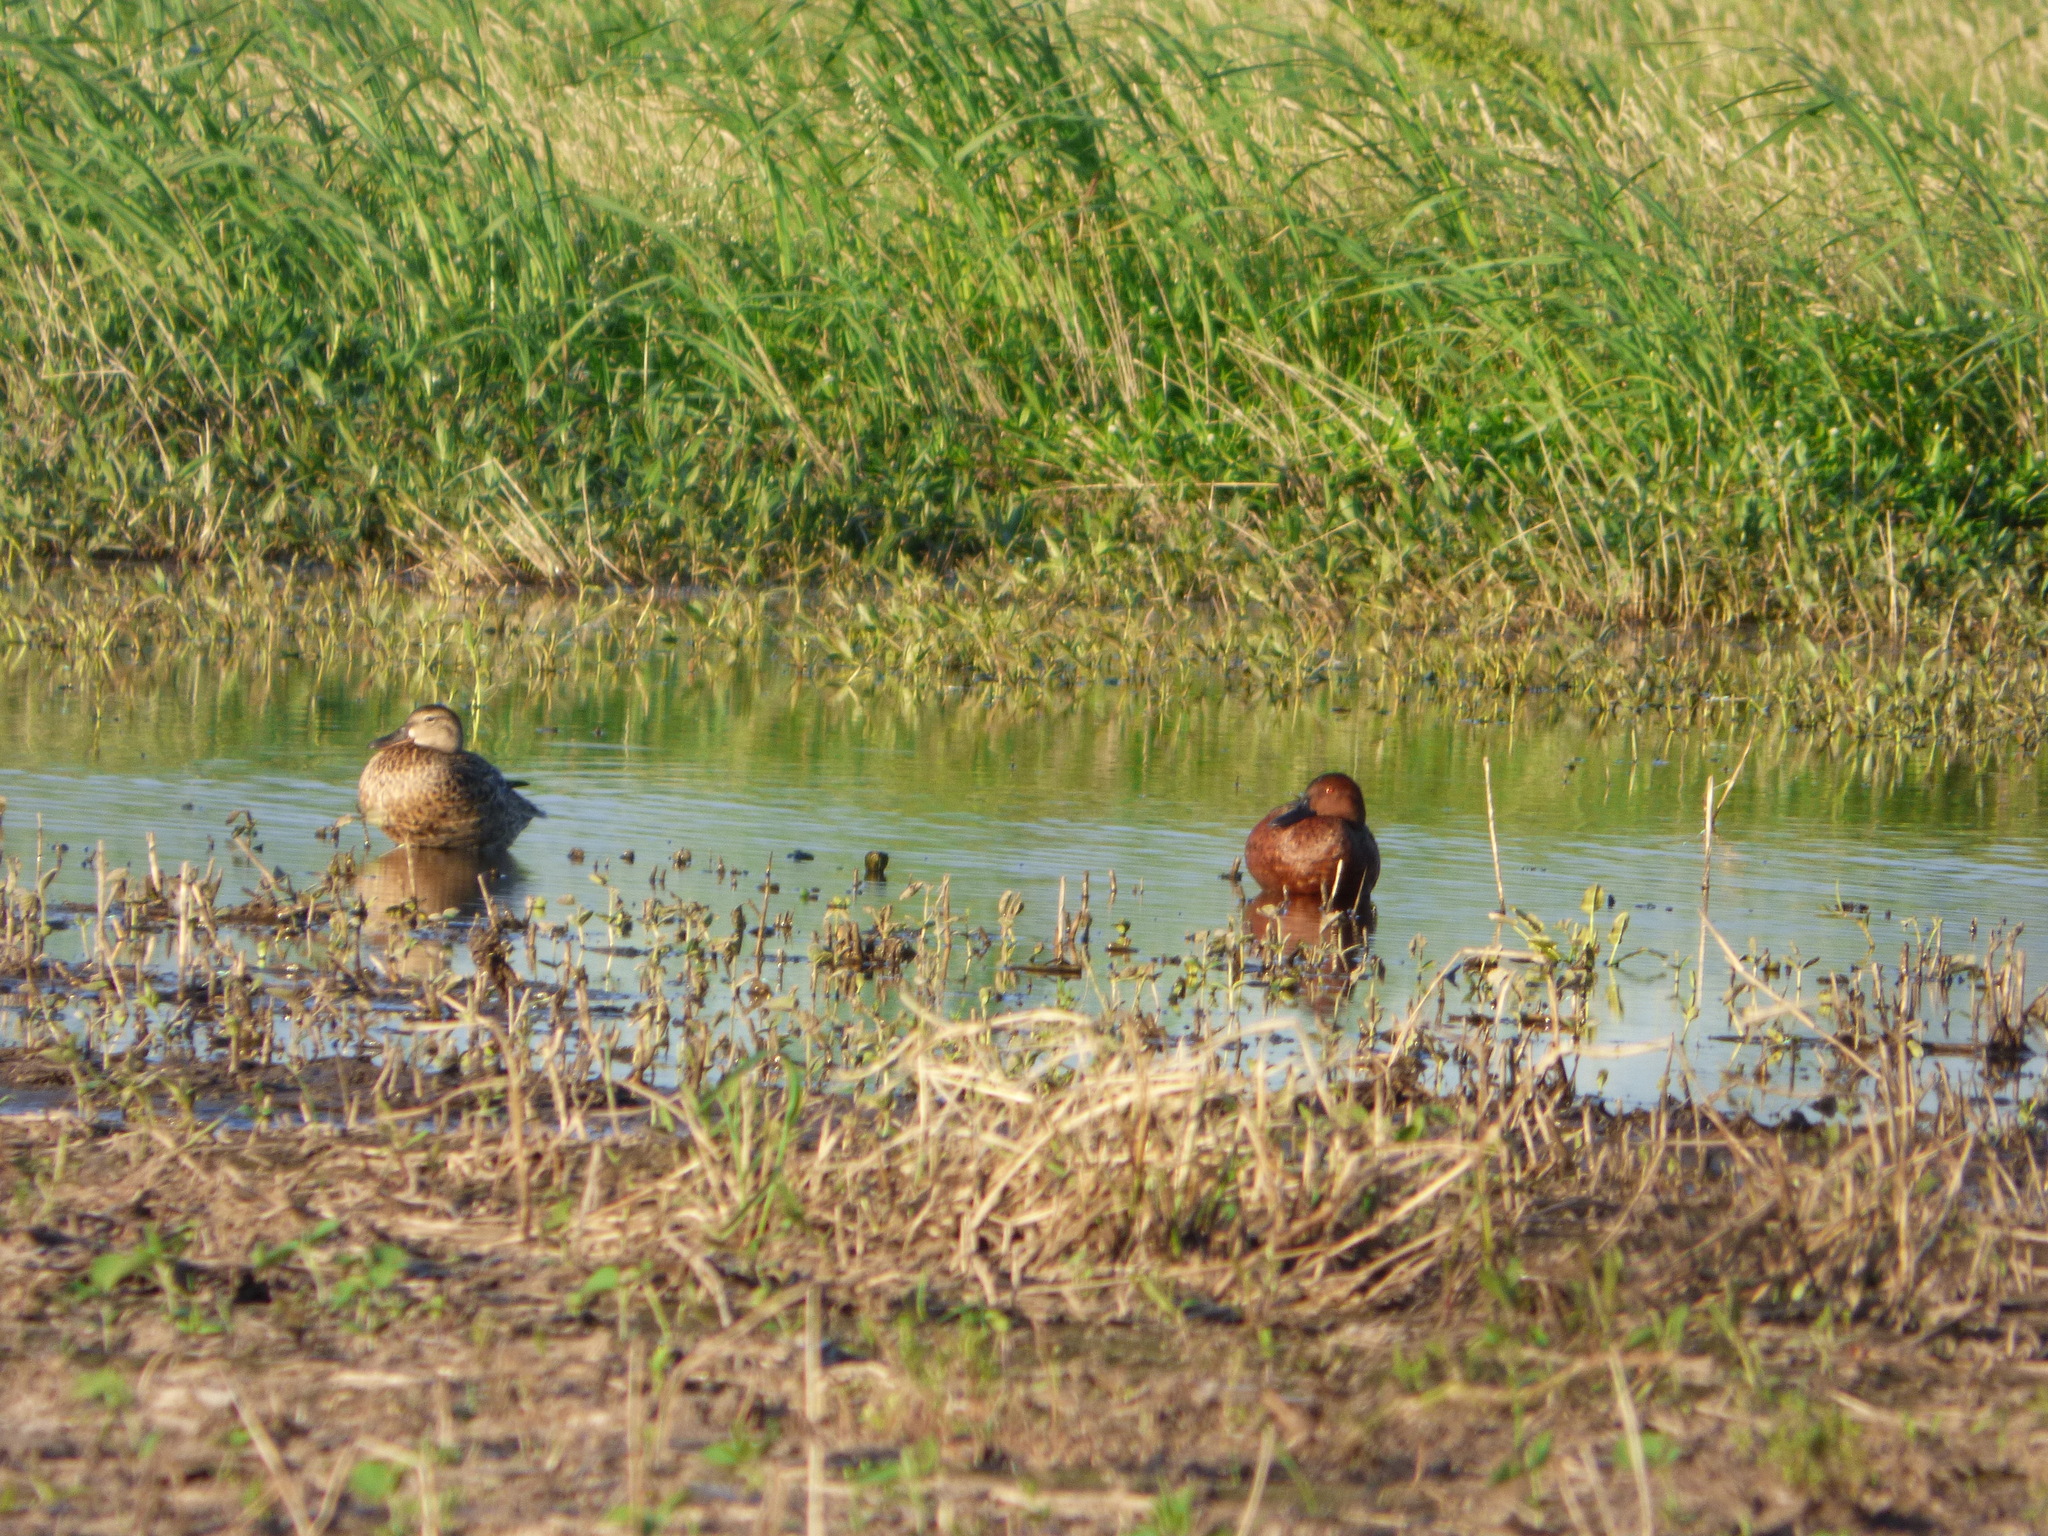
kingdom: Animalia
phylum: Chordata
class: Aves
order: Anseriformes
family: Anatidae
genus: Spatula
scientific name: Spatula cyanoptera
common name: Cinnamon teal
